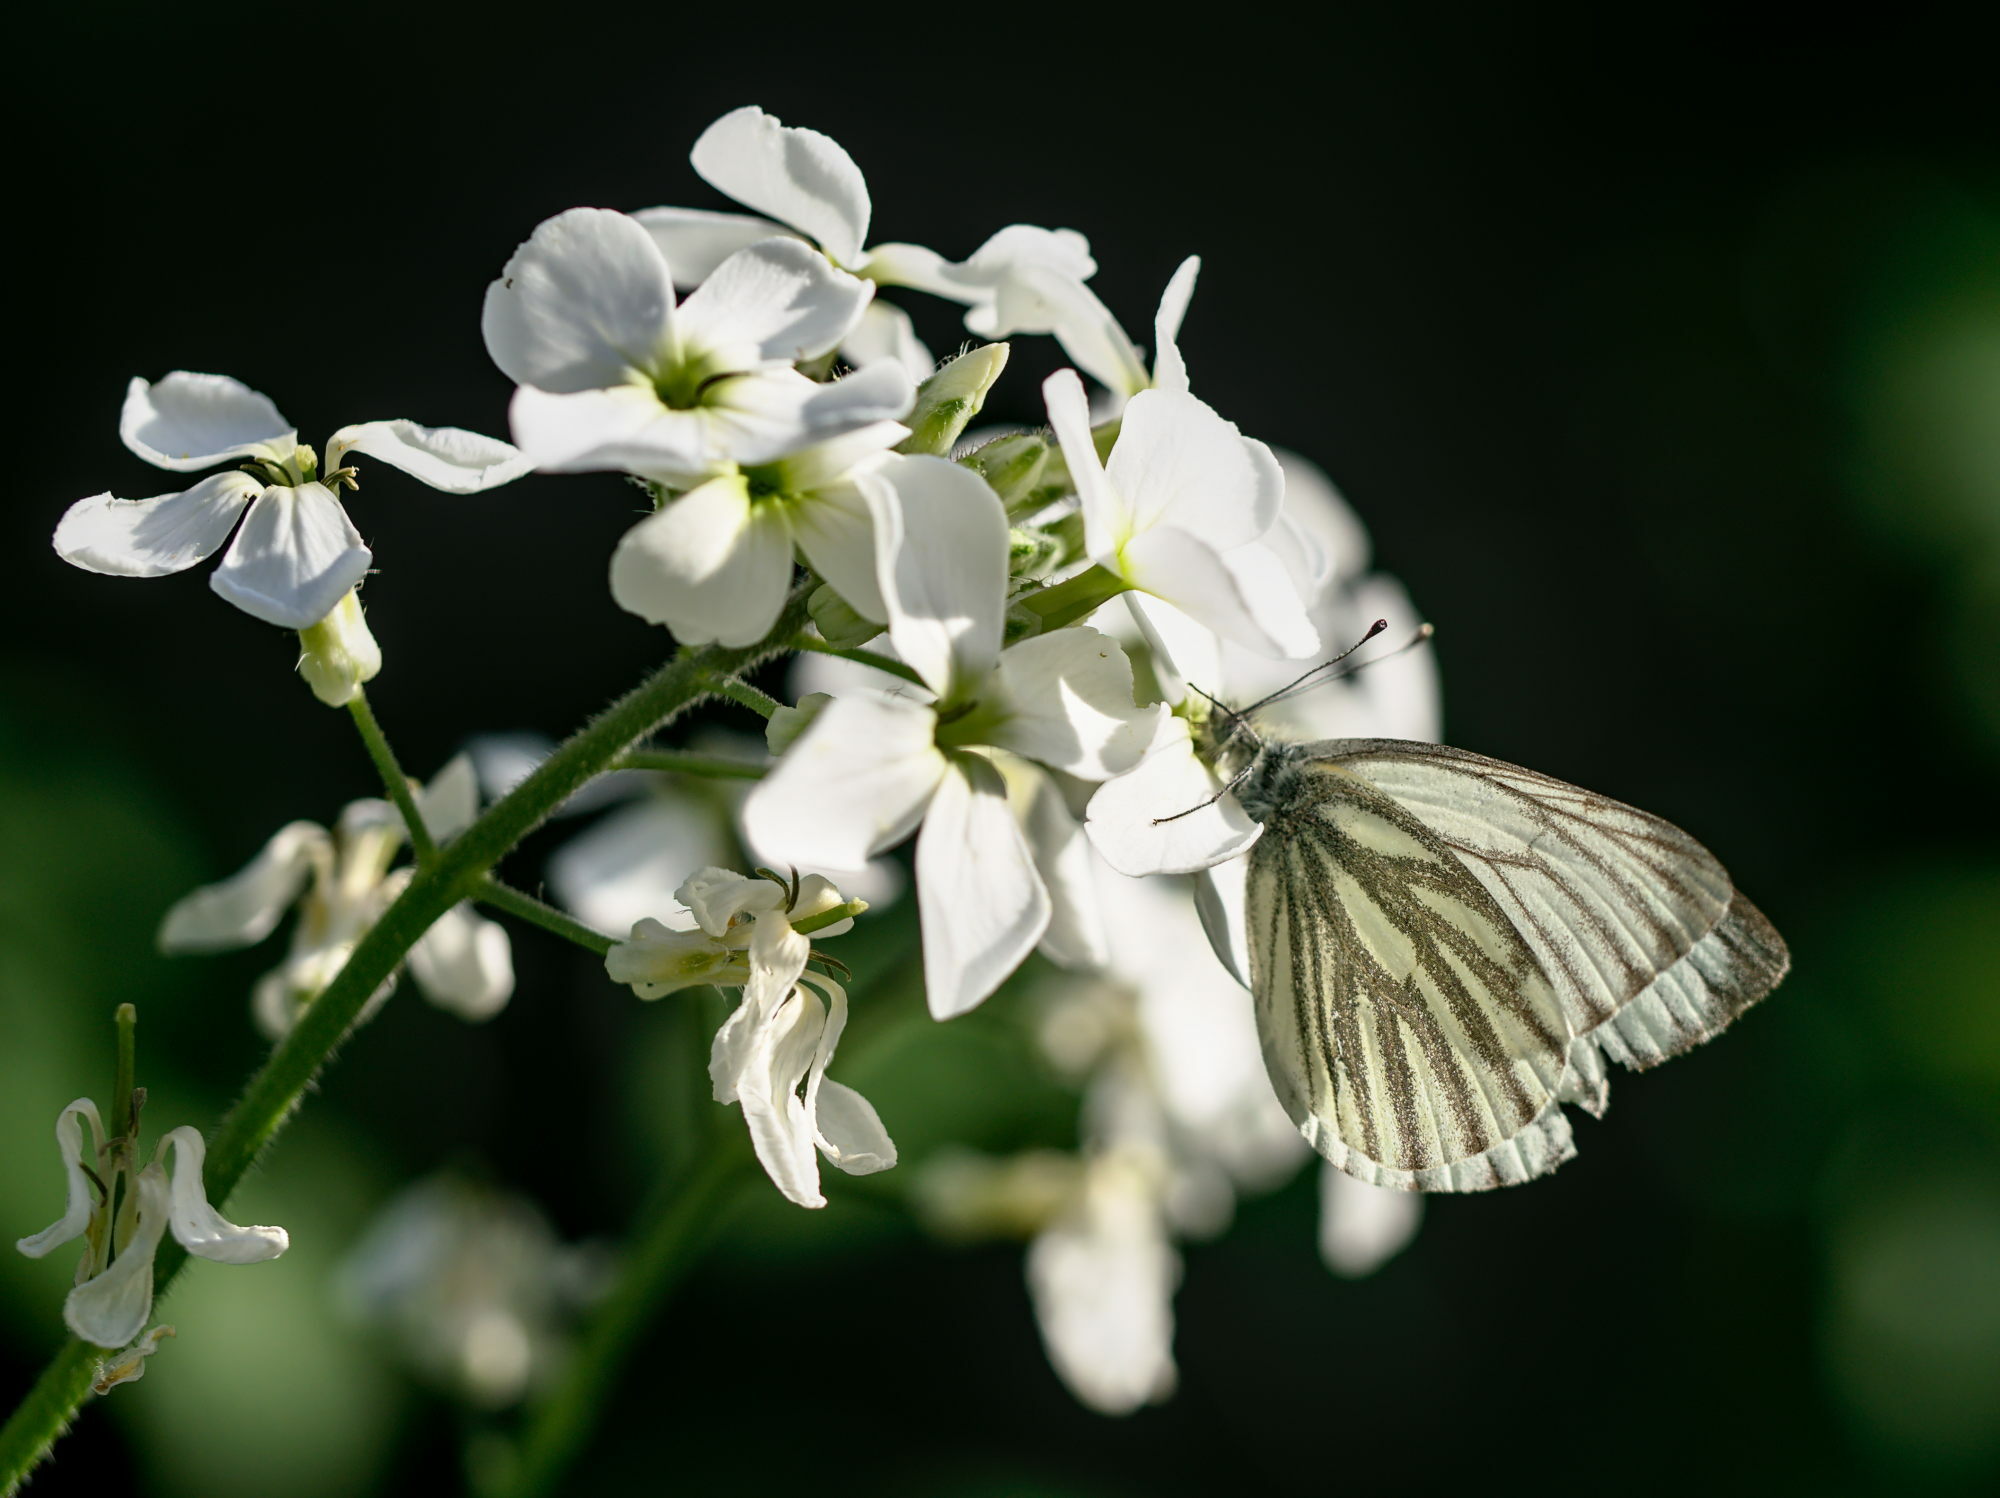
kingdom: Animalia
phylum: Arthropoda
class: Insecta
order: Lepidoptera
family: Pieridae
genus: Pieris
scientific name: Pieris napi
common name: Green-veined white
